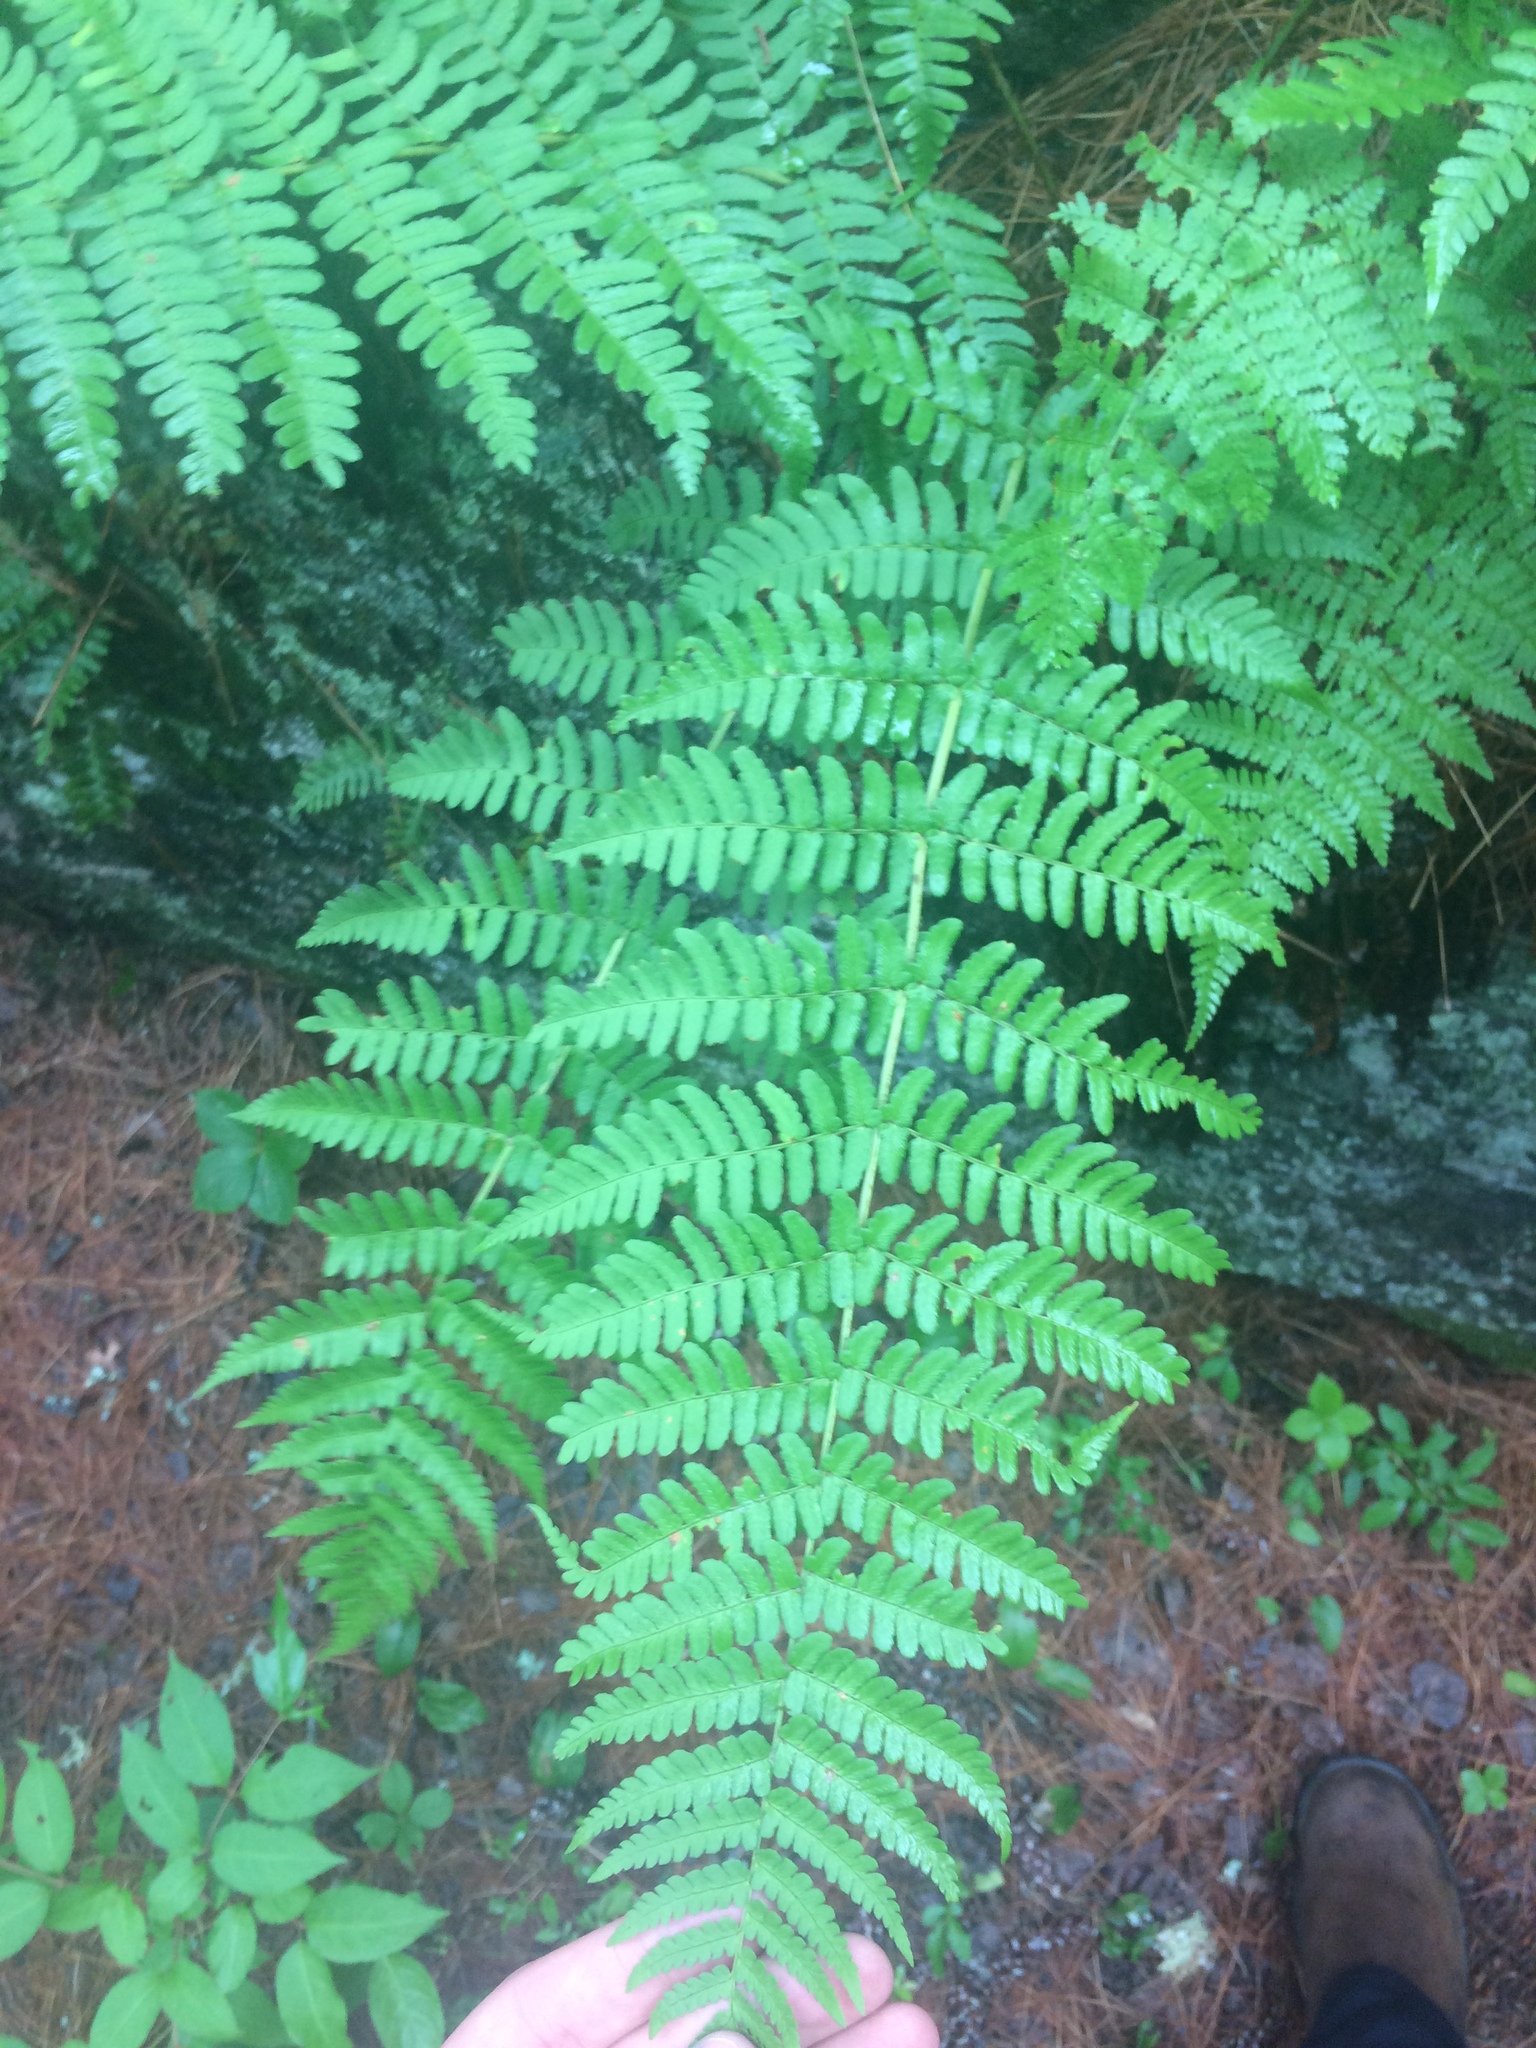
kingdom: Plantae
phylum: Tracheophyta
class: Polypodiopsida
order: Polypodiales
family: Dryopteridaceae
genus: Dryopteris
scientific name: Dryopteris marginalis
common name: Marginal wood fern
